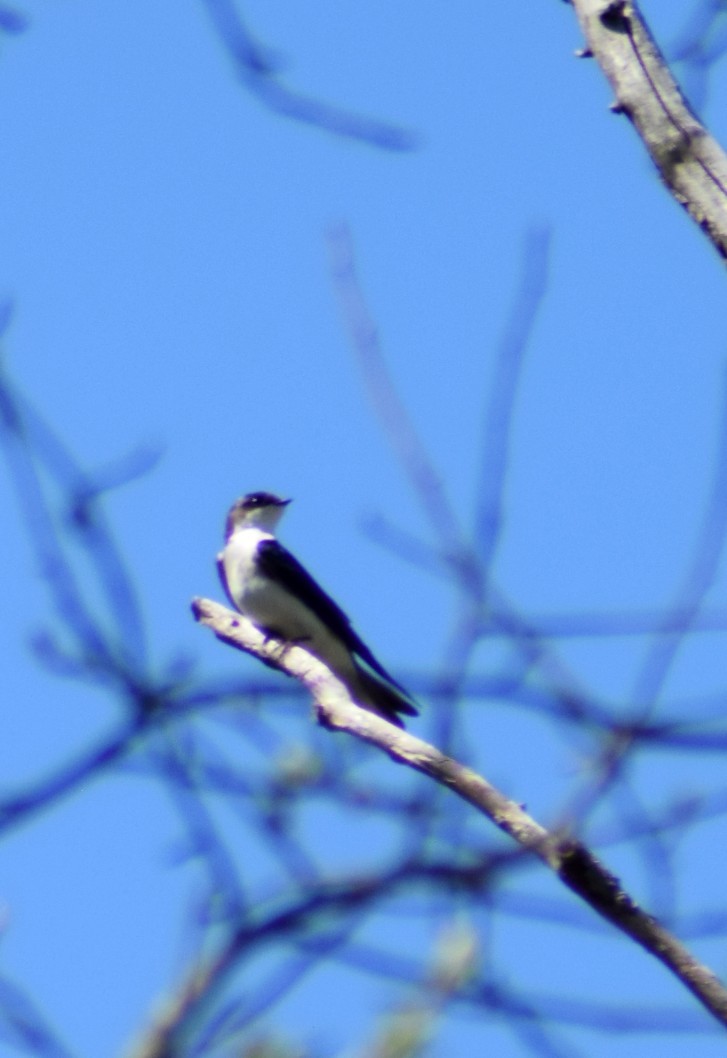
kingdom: Animalia
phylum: Chordata
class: Aves
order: Passeriformes
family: Hirundinidae
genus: Tachycineta
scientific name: Tachycineta bicolor
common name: Tree swallow
